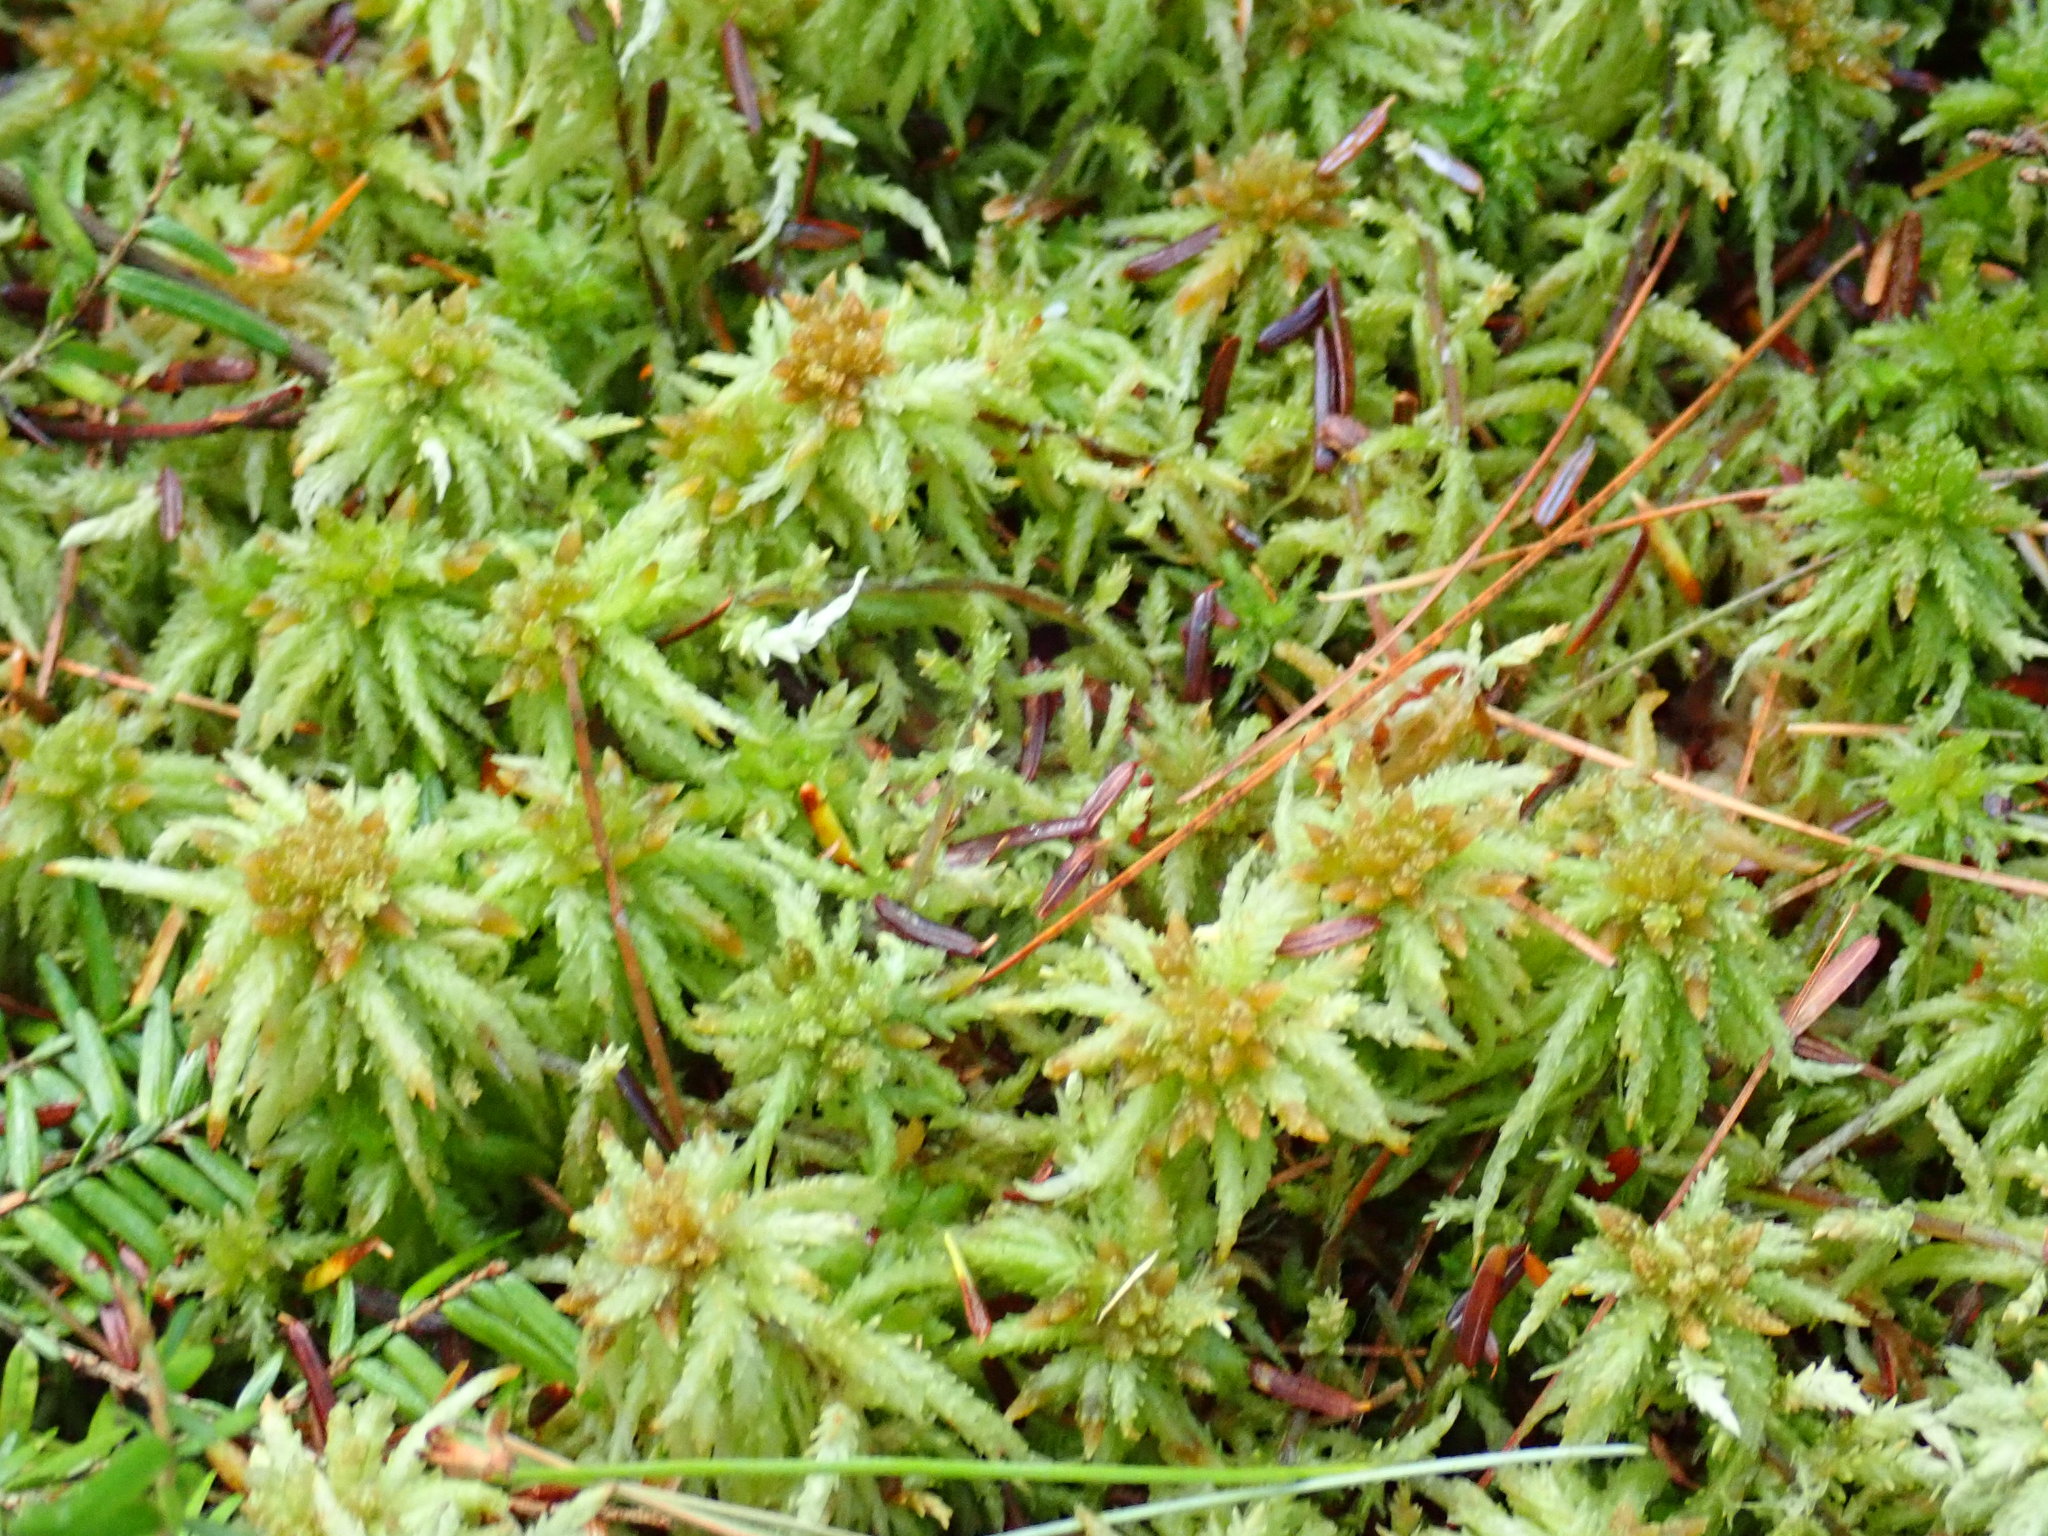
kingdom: Plantae
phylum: Bryophyta
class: Sphagnopsida
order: Sphagnales
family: Sphagnaceae
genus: Sphagnum
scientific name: Sphagnum
